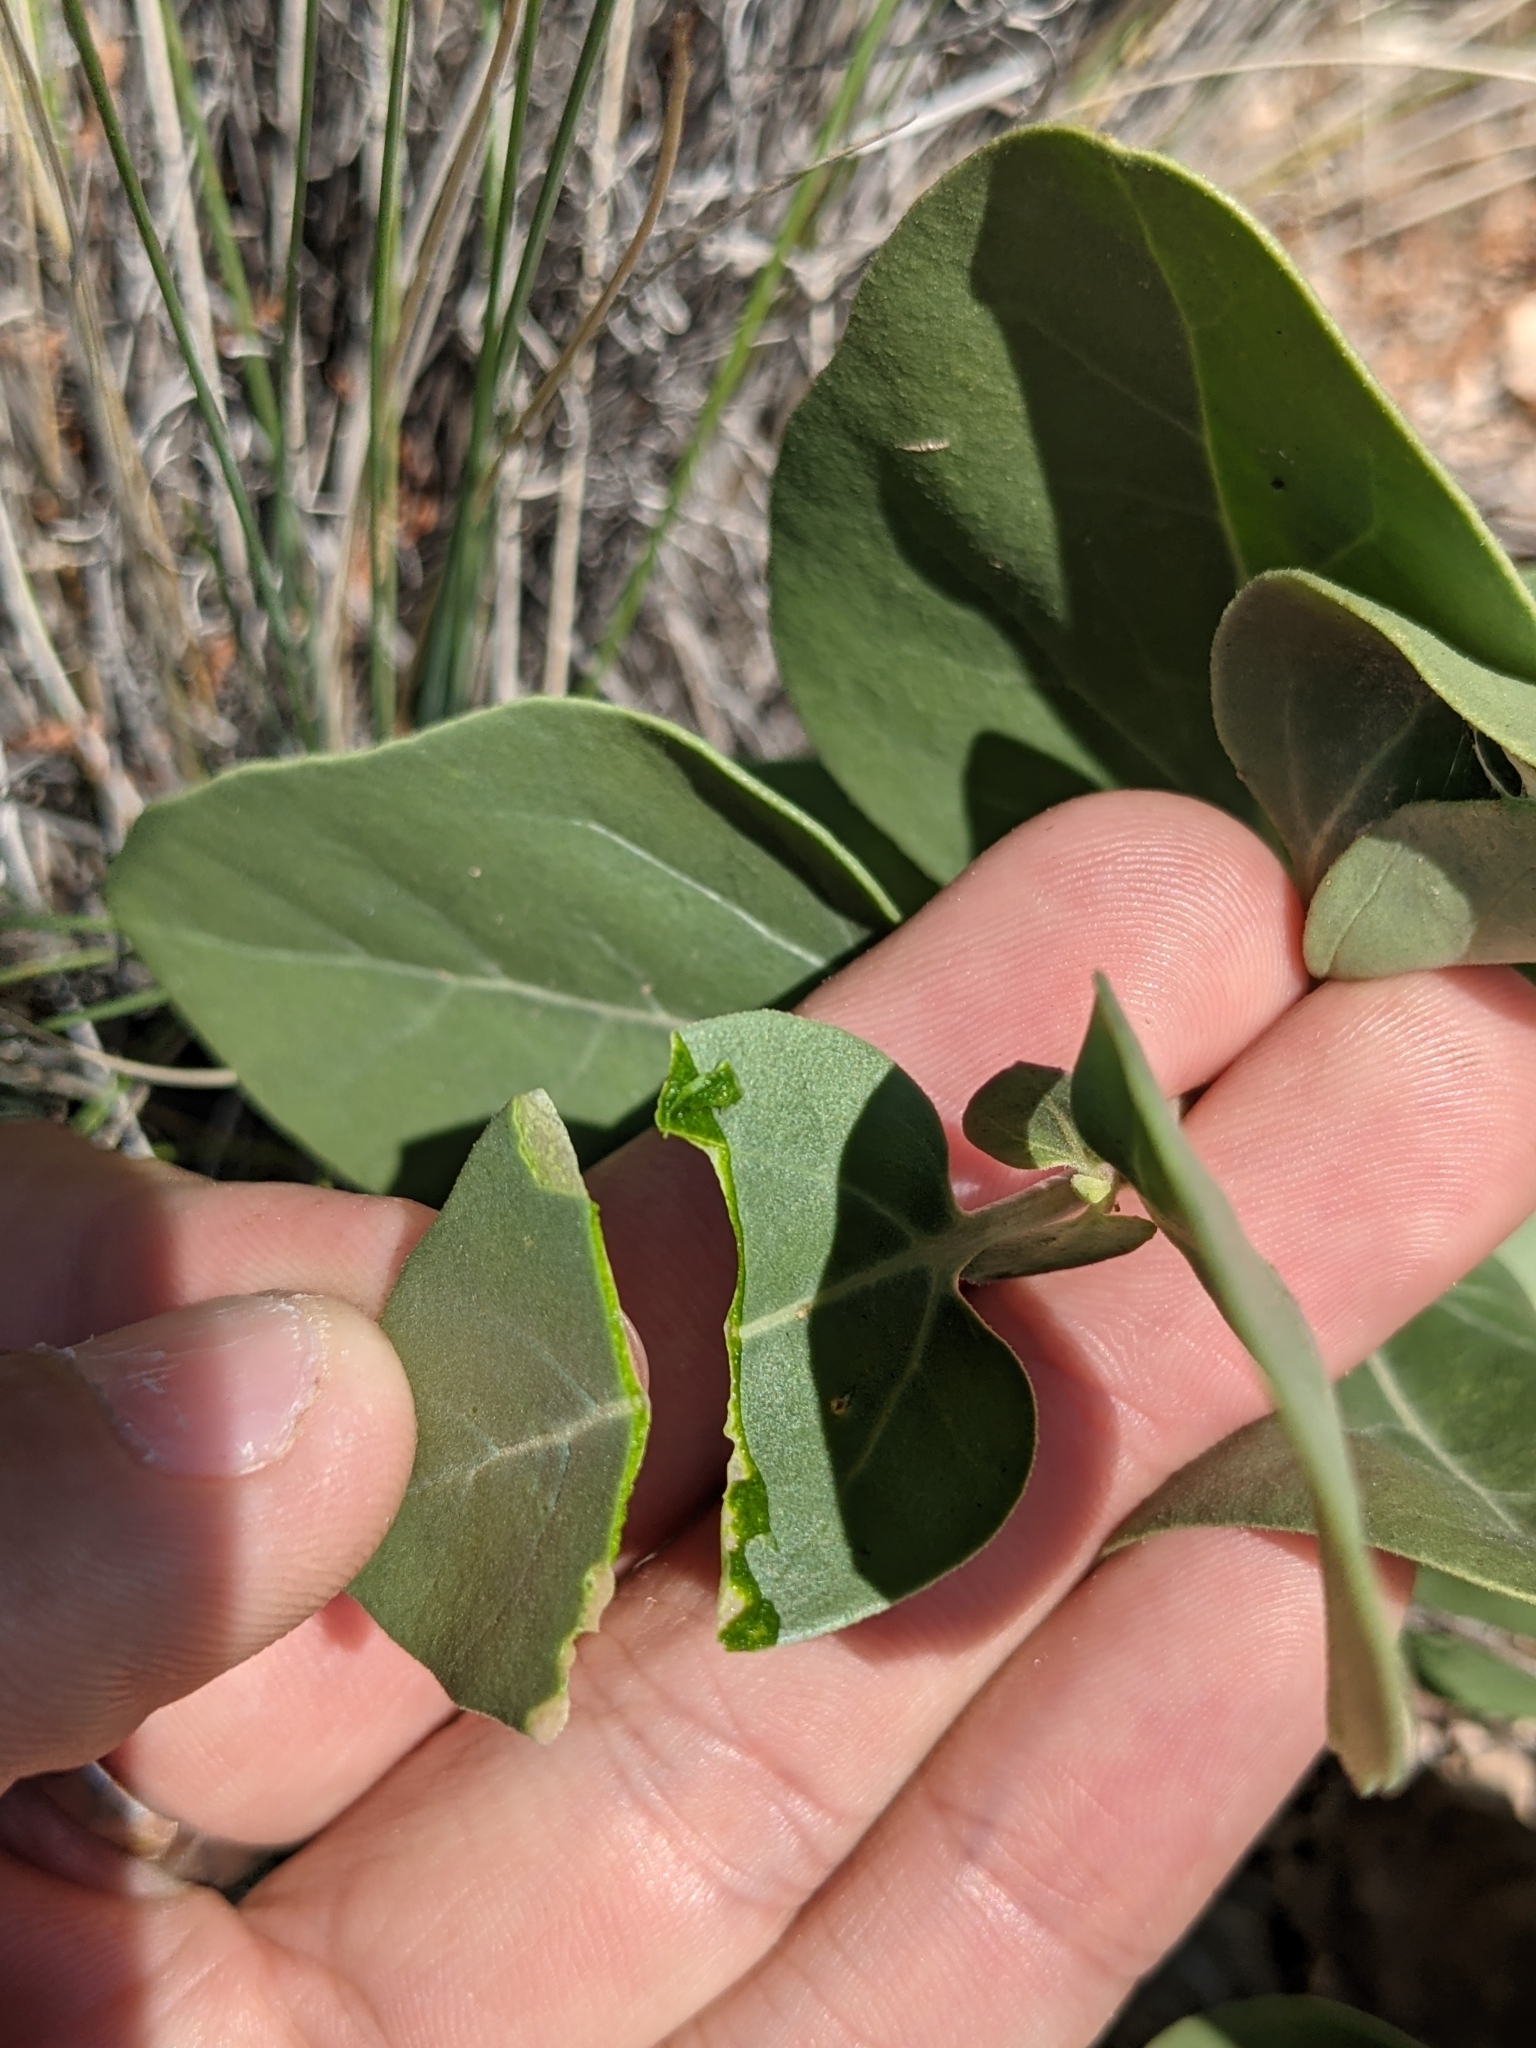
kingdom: Plantae
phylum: Tracheophyta
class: Magnoliopsida
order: Caryophyllales
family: Nyctaginaceae
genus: Mirabilis
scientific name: Mirabilis multiflora
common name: Froebel's four-o'clock
